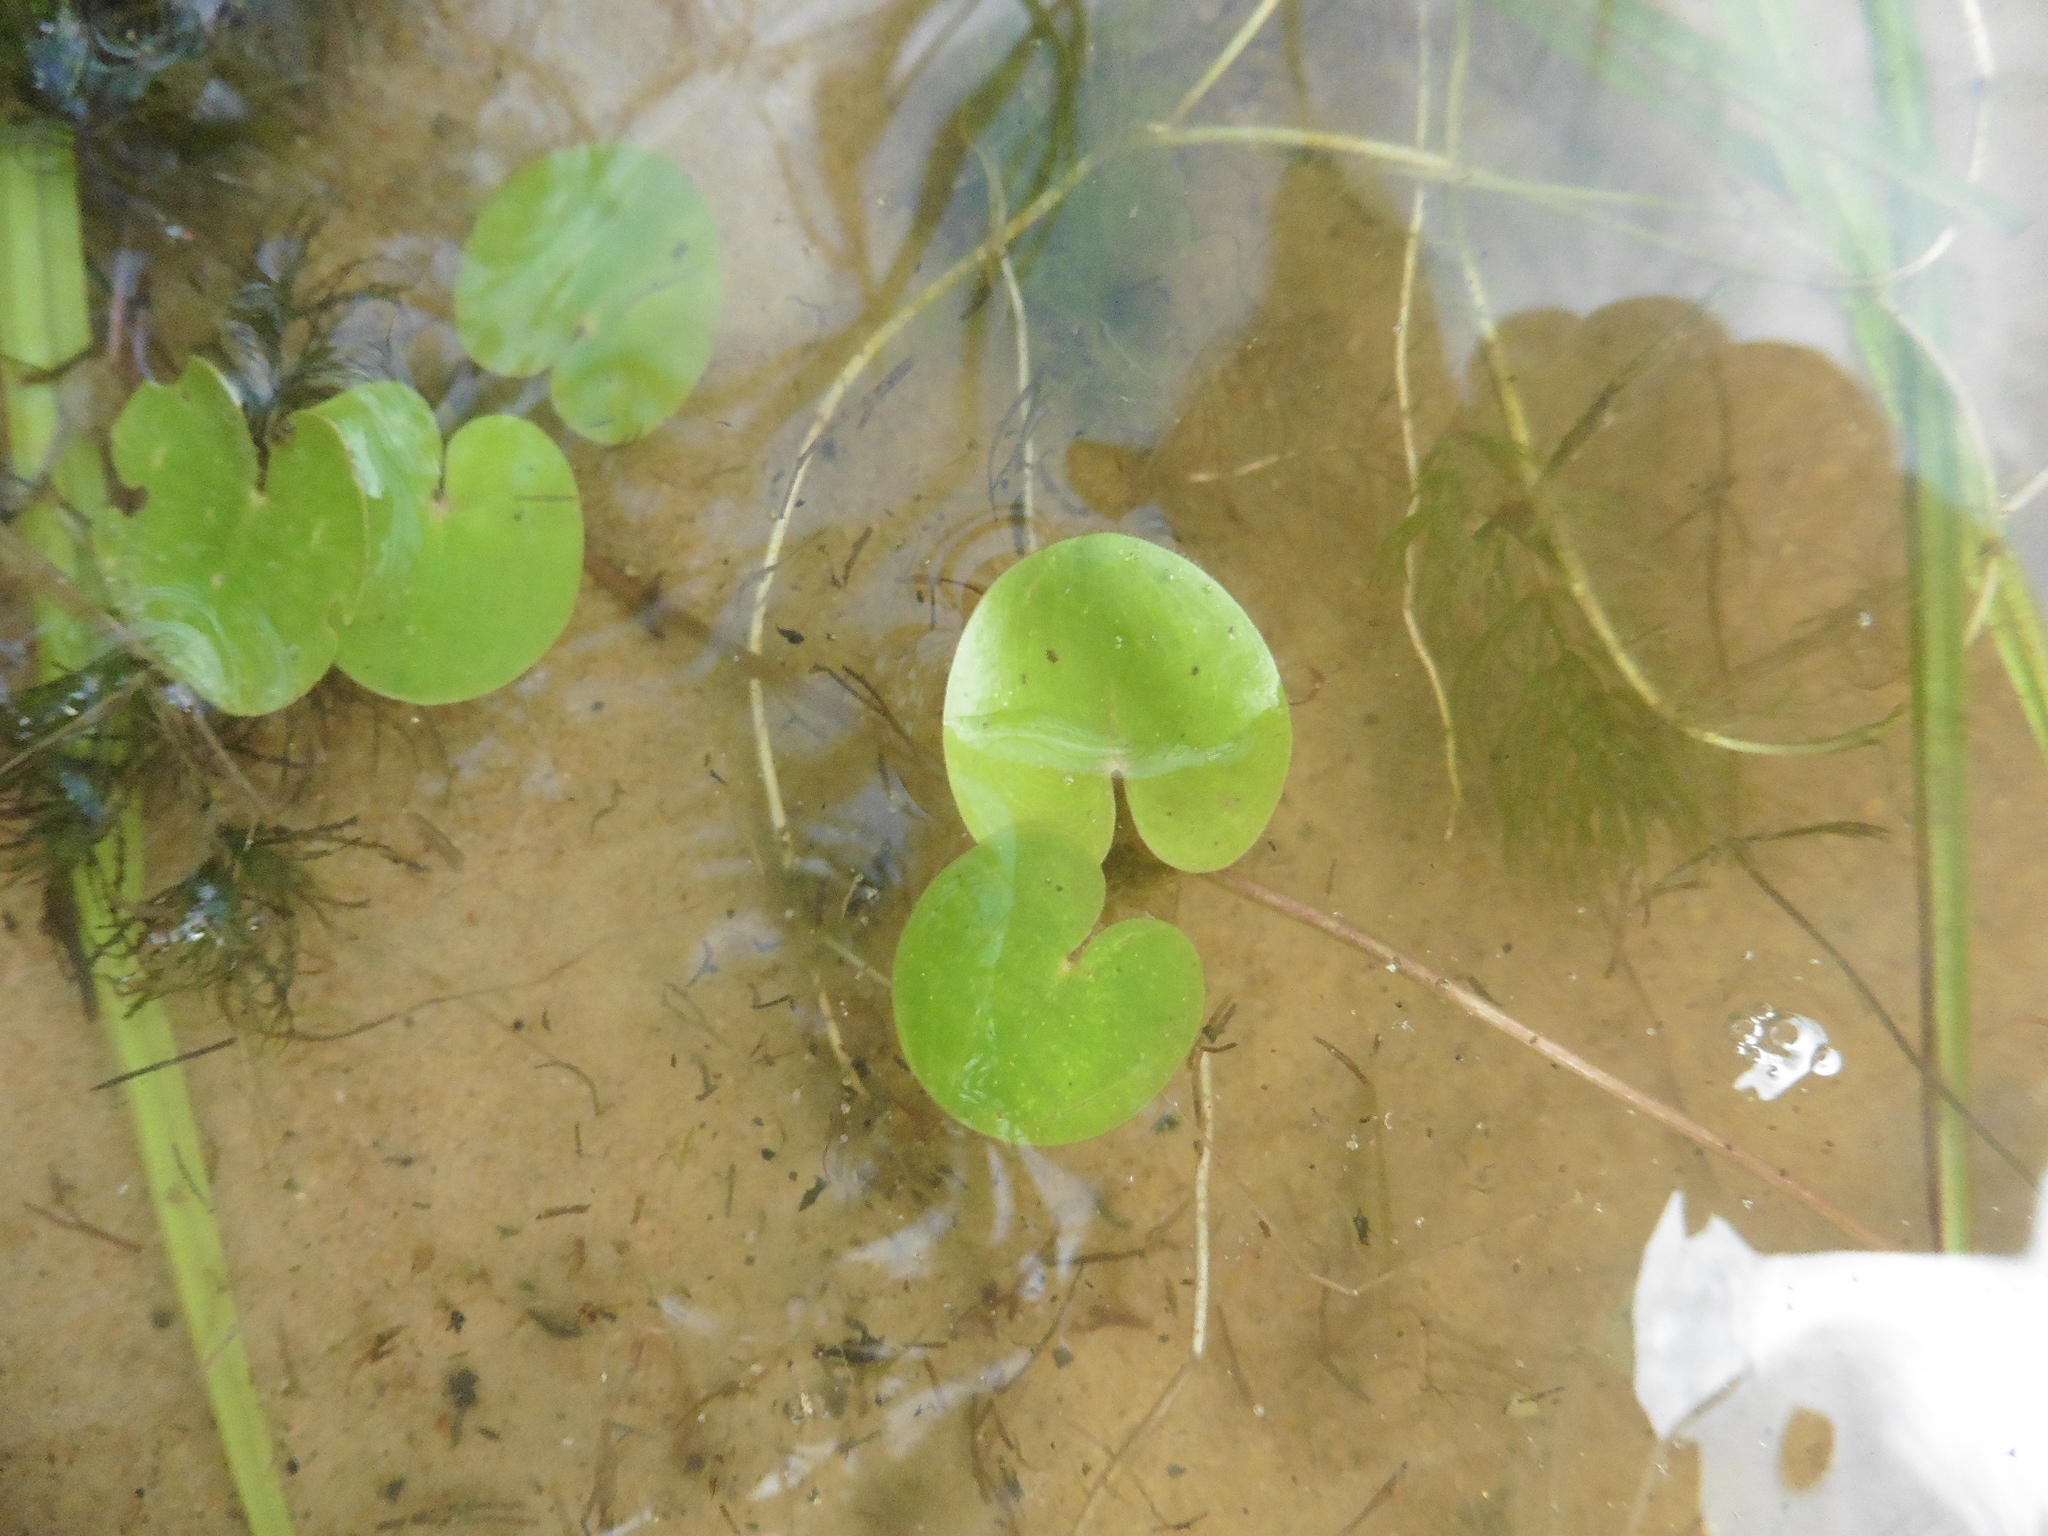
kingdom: Plantae
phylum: Tracheophyta
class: Liliopsida
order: Alismatales
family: Hydrocharitaceae
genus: Hydrocharis
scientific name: Hydrocharis morsus-ranae
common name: Frogbit
